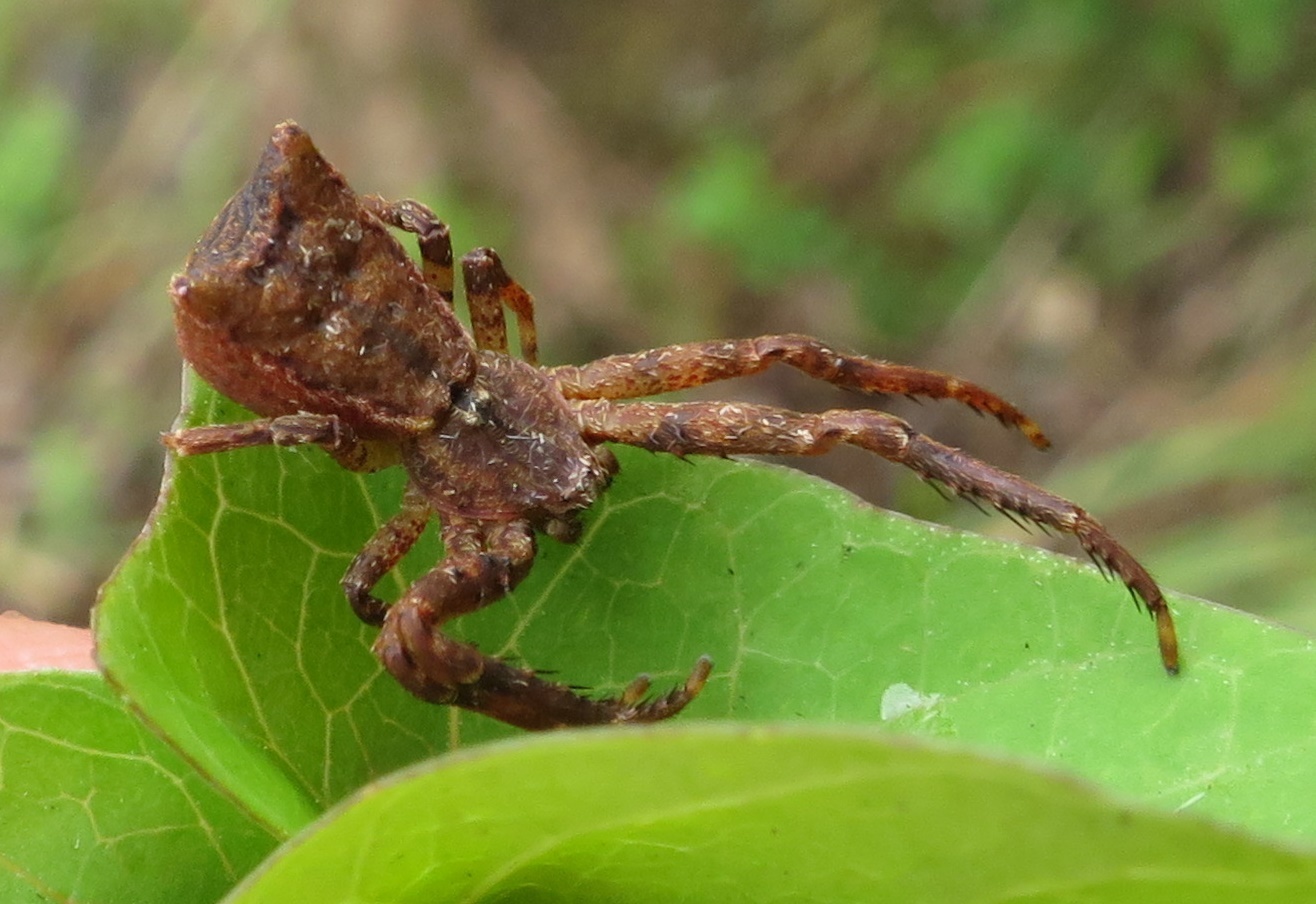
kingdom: Animalia
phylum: Arthropoda
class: Arachnida
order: Araneae
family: Thomisidae
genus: Sidymella
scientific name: Sidymella angularis
